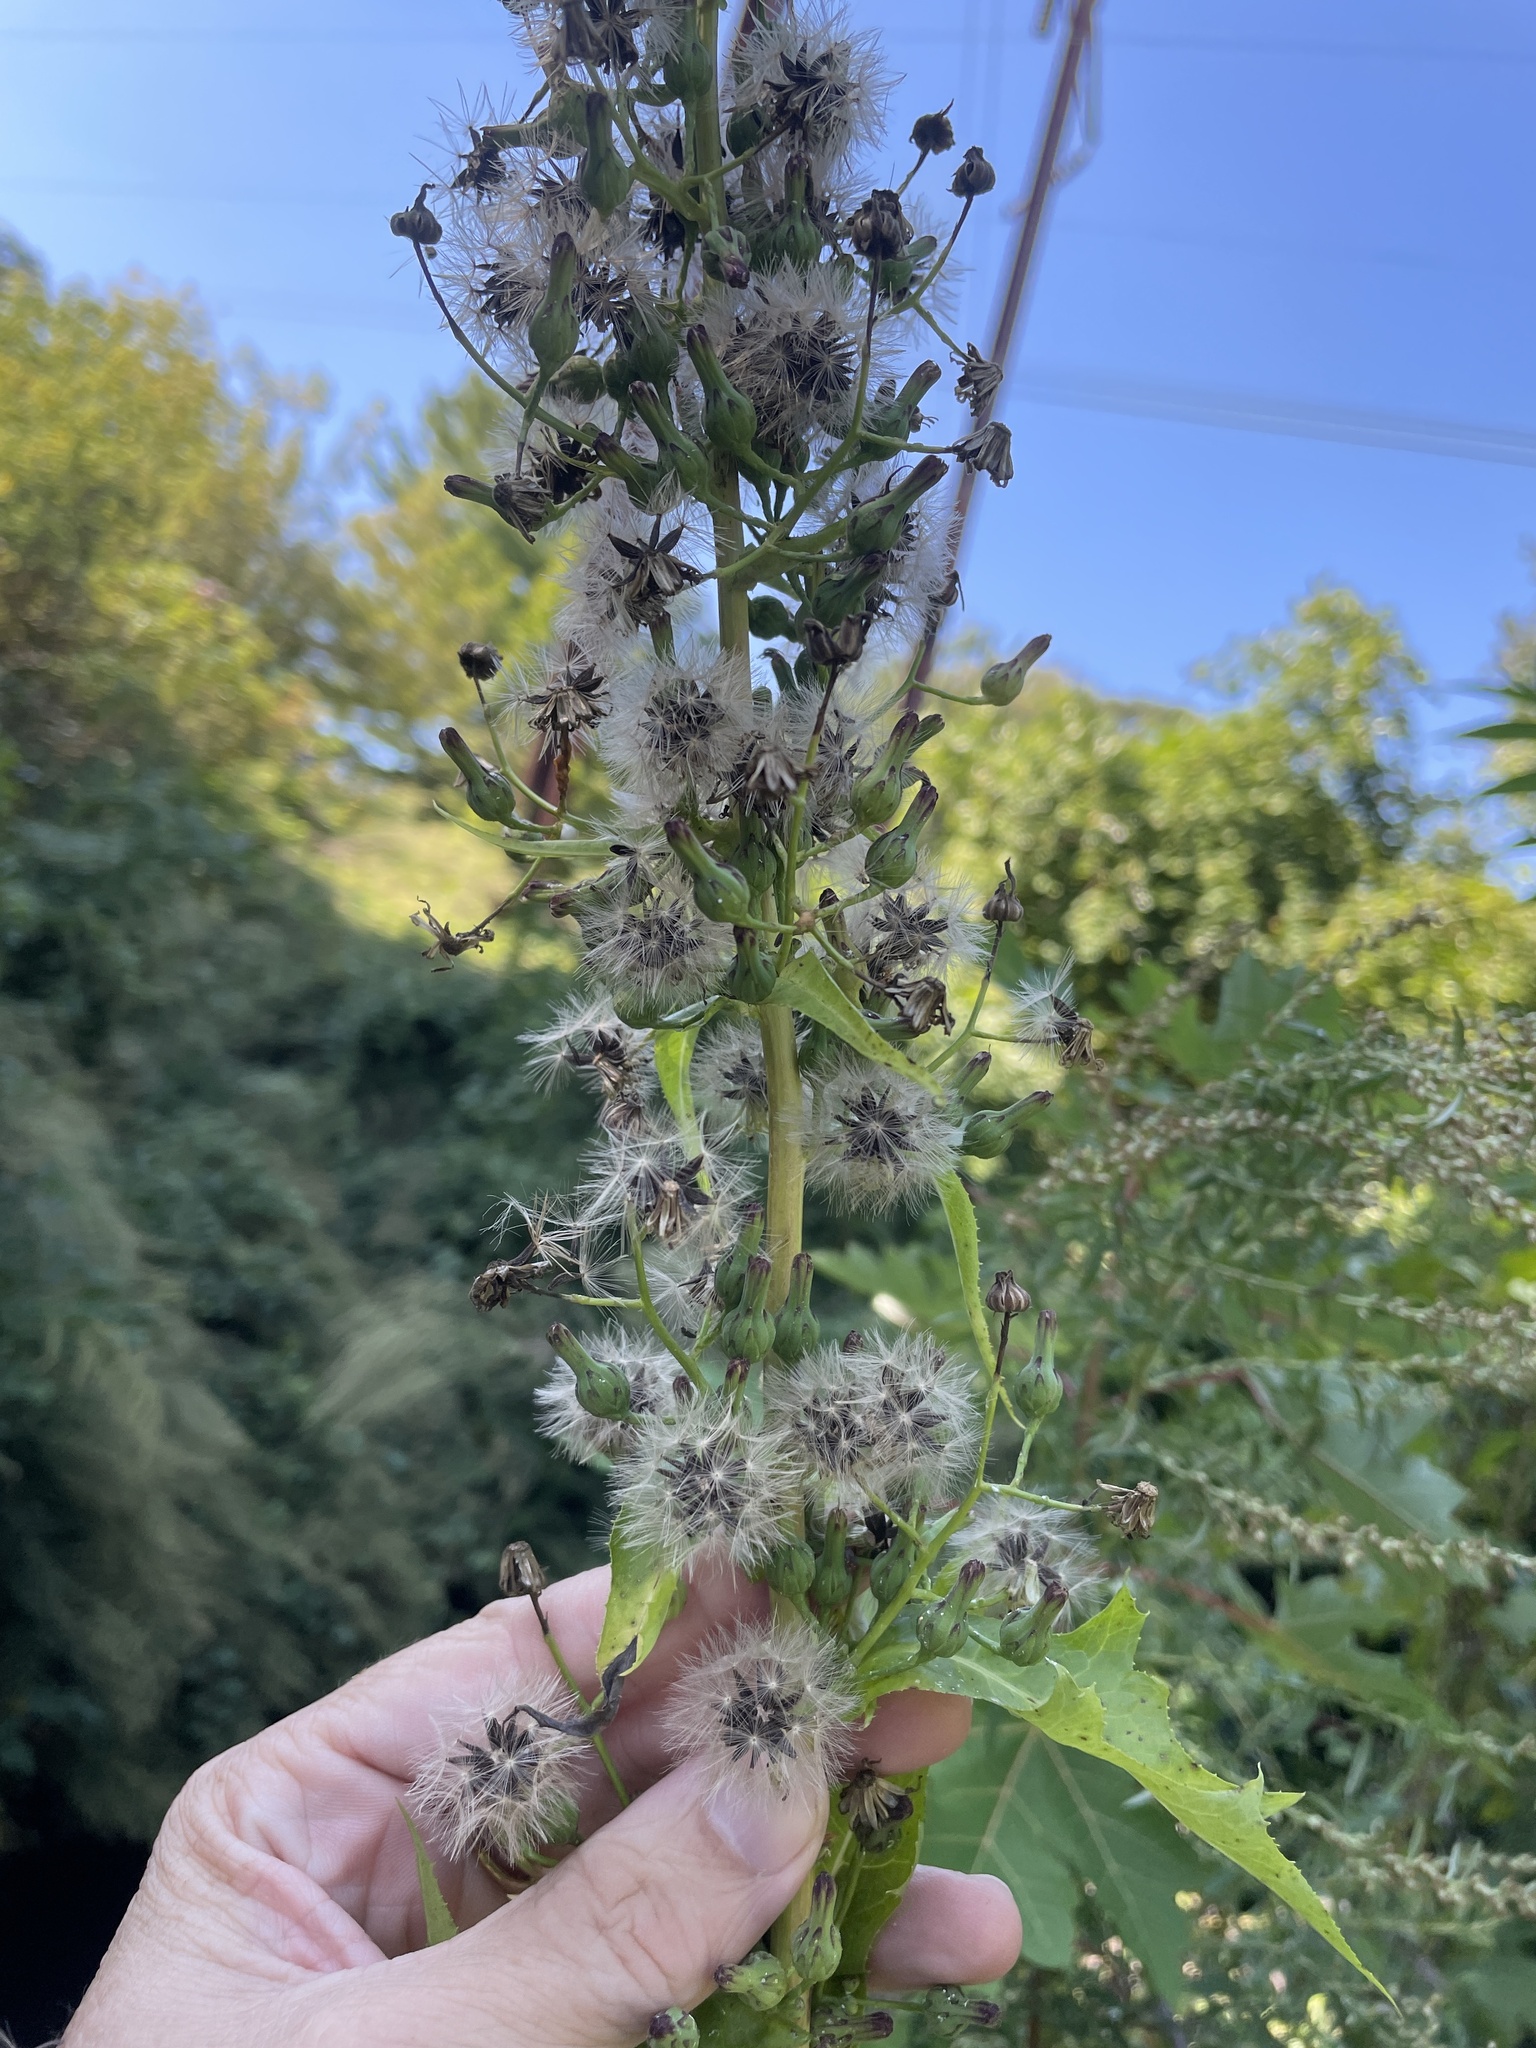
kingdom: Plantae
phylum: Tracheophyta
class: Magnoliopsida
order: Asterales
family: Asteraceae
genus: Lactuca
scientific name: Lactuca biennis
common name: Blue wood lettuce
